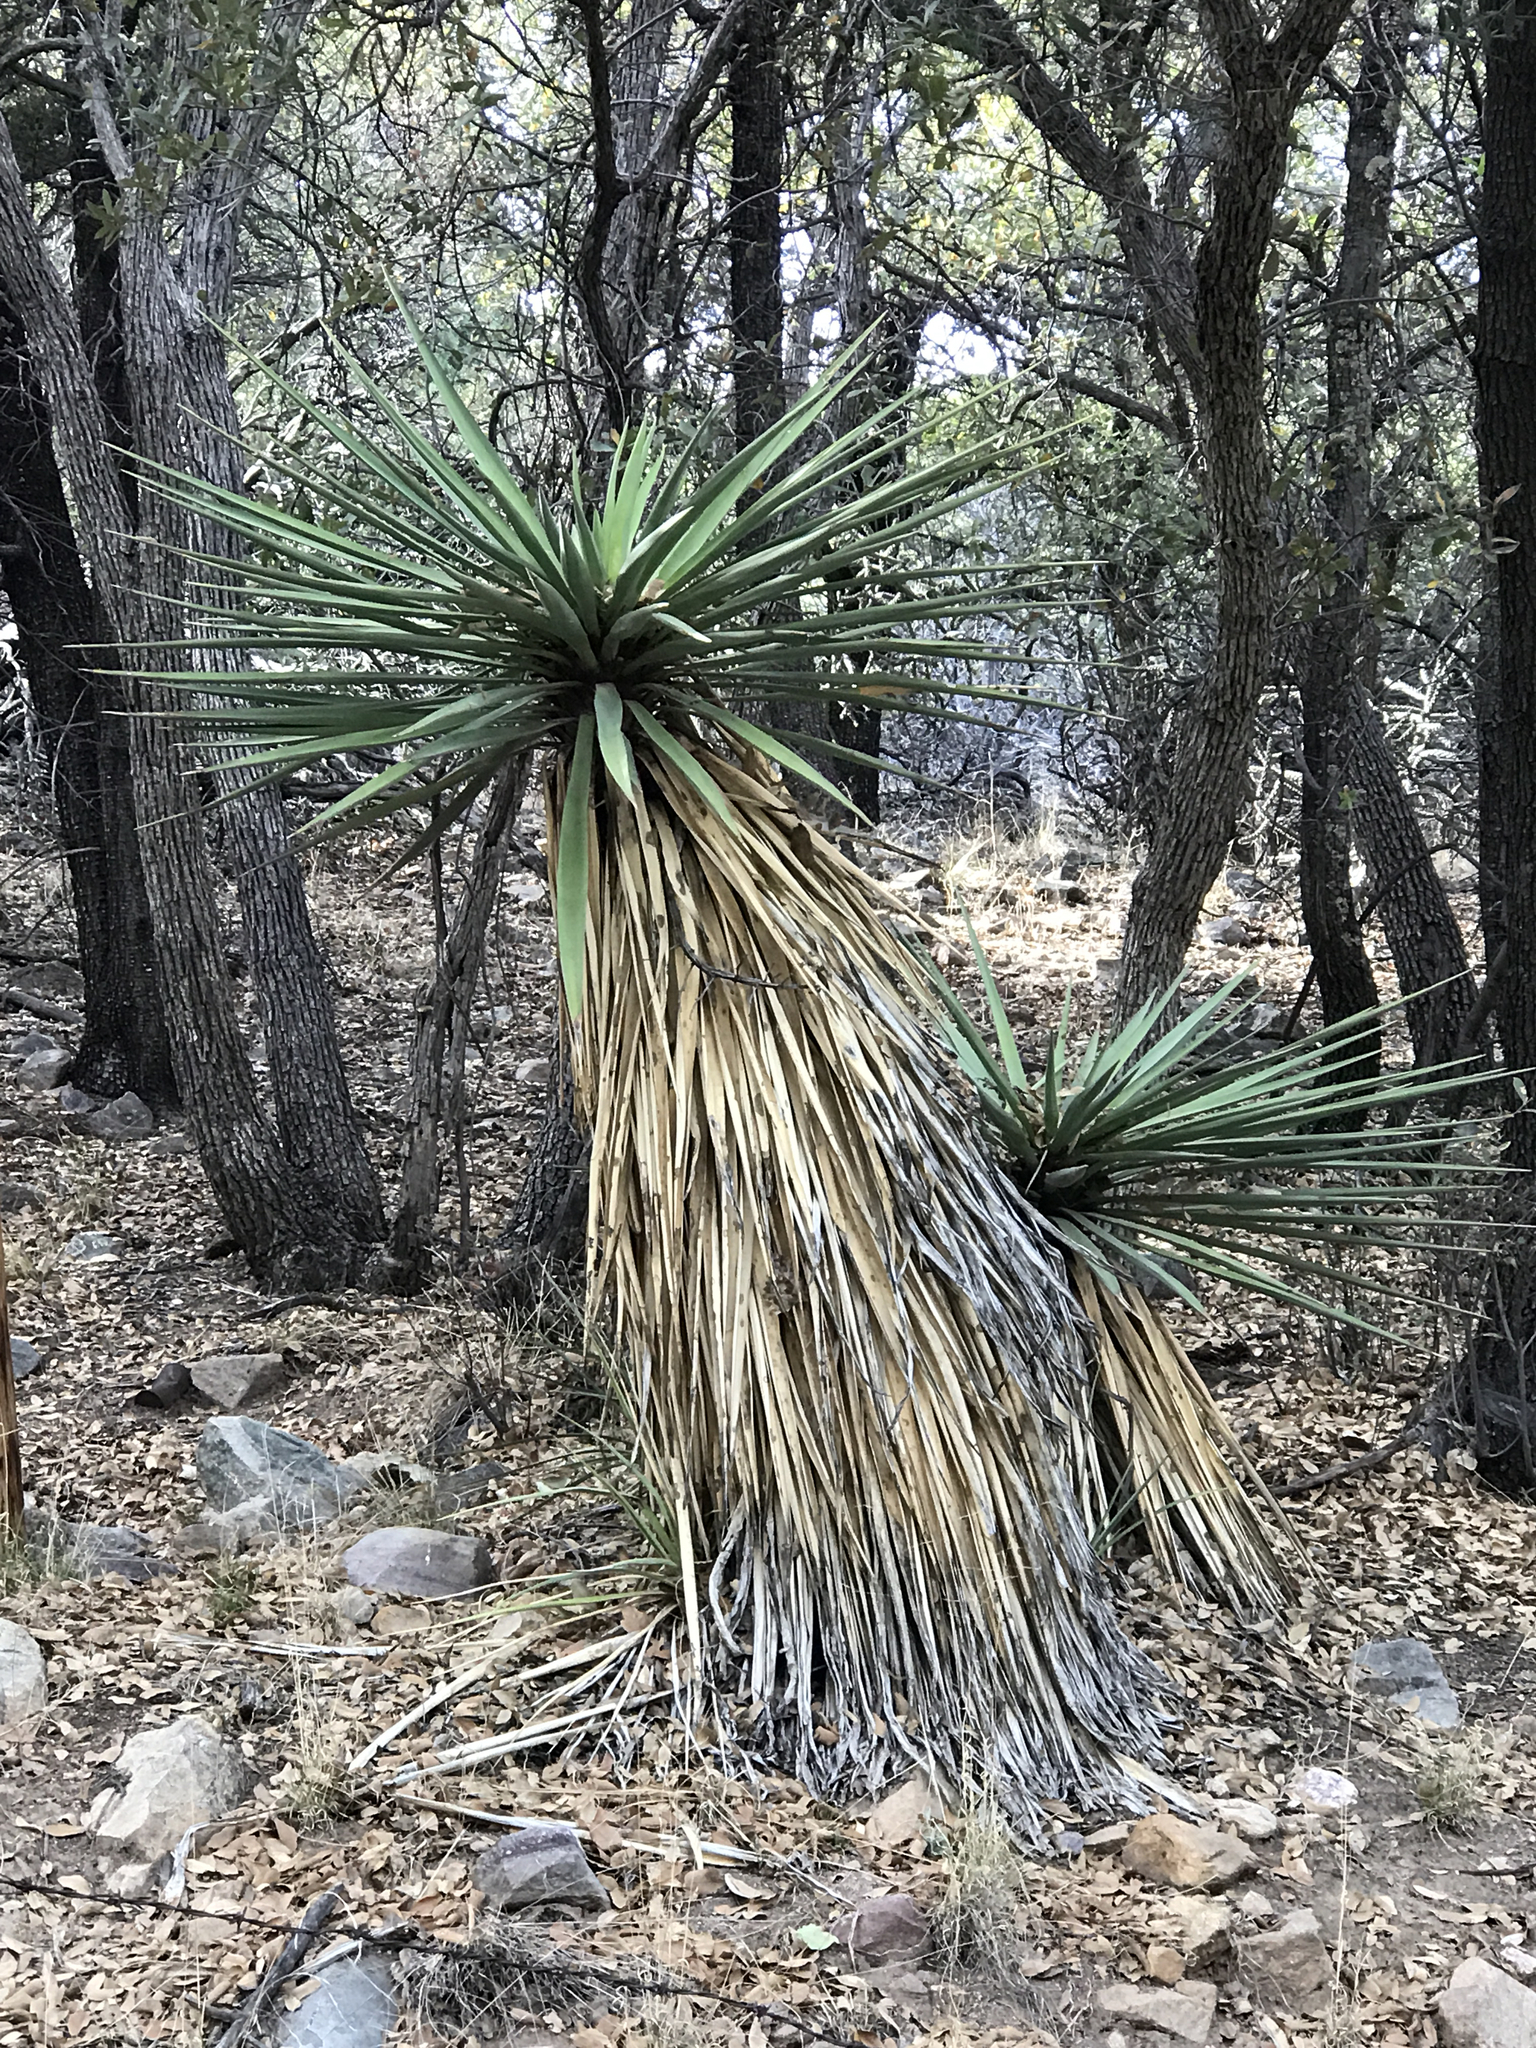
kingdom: Plantae
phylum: Tracheophyta
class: Liliopsida
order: Asparagales
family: Asparagaceae
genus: Yucca
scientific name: Yucca madrensis
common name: Hoary yucca
